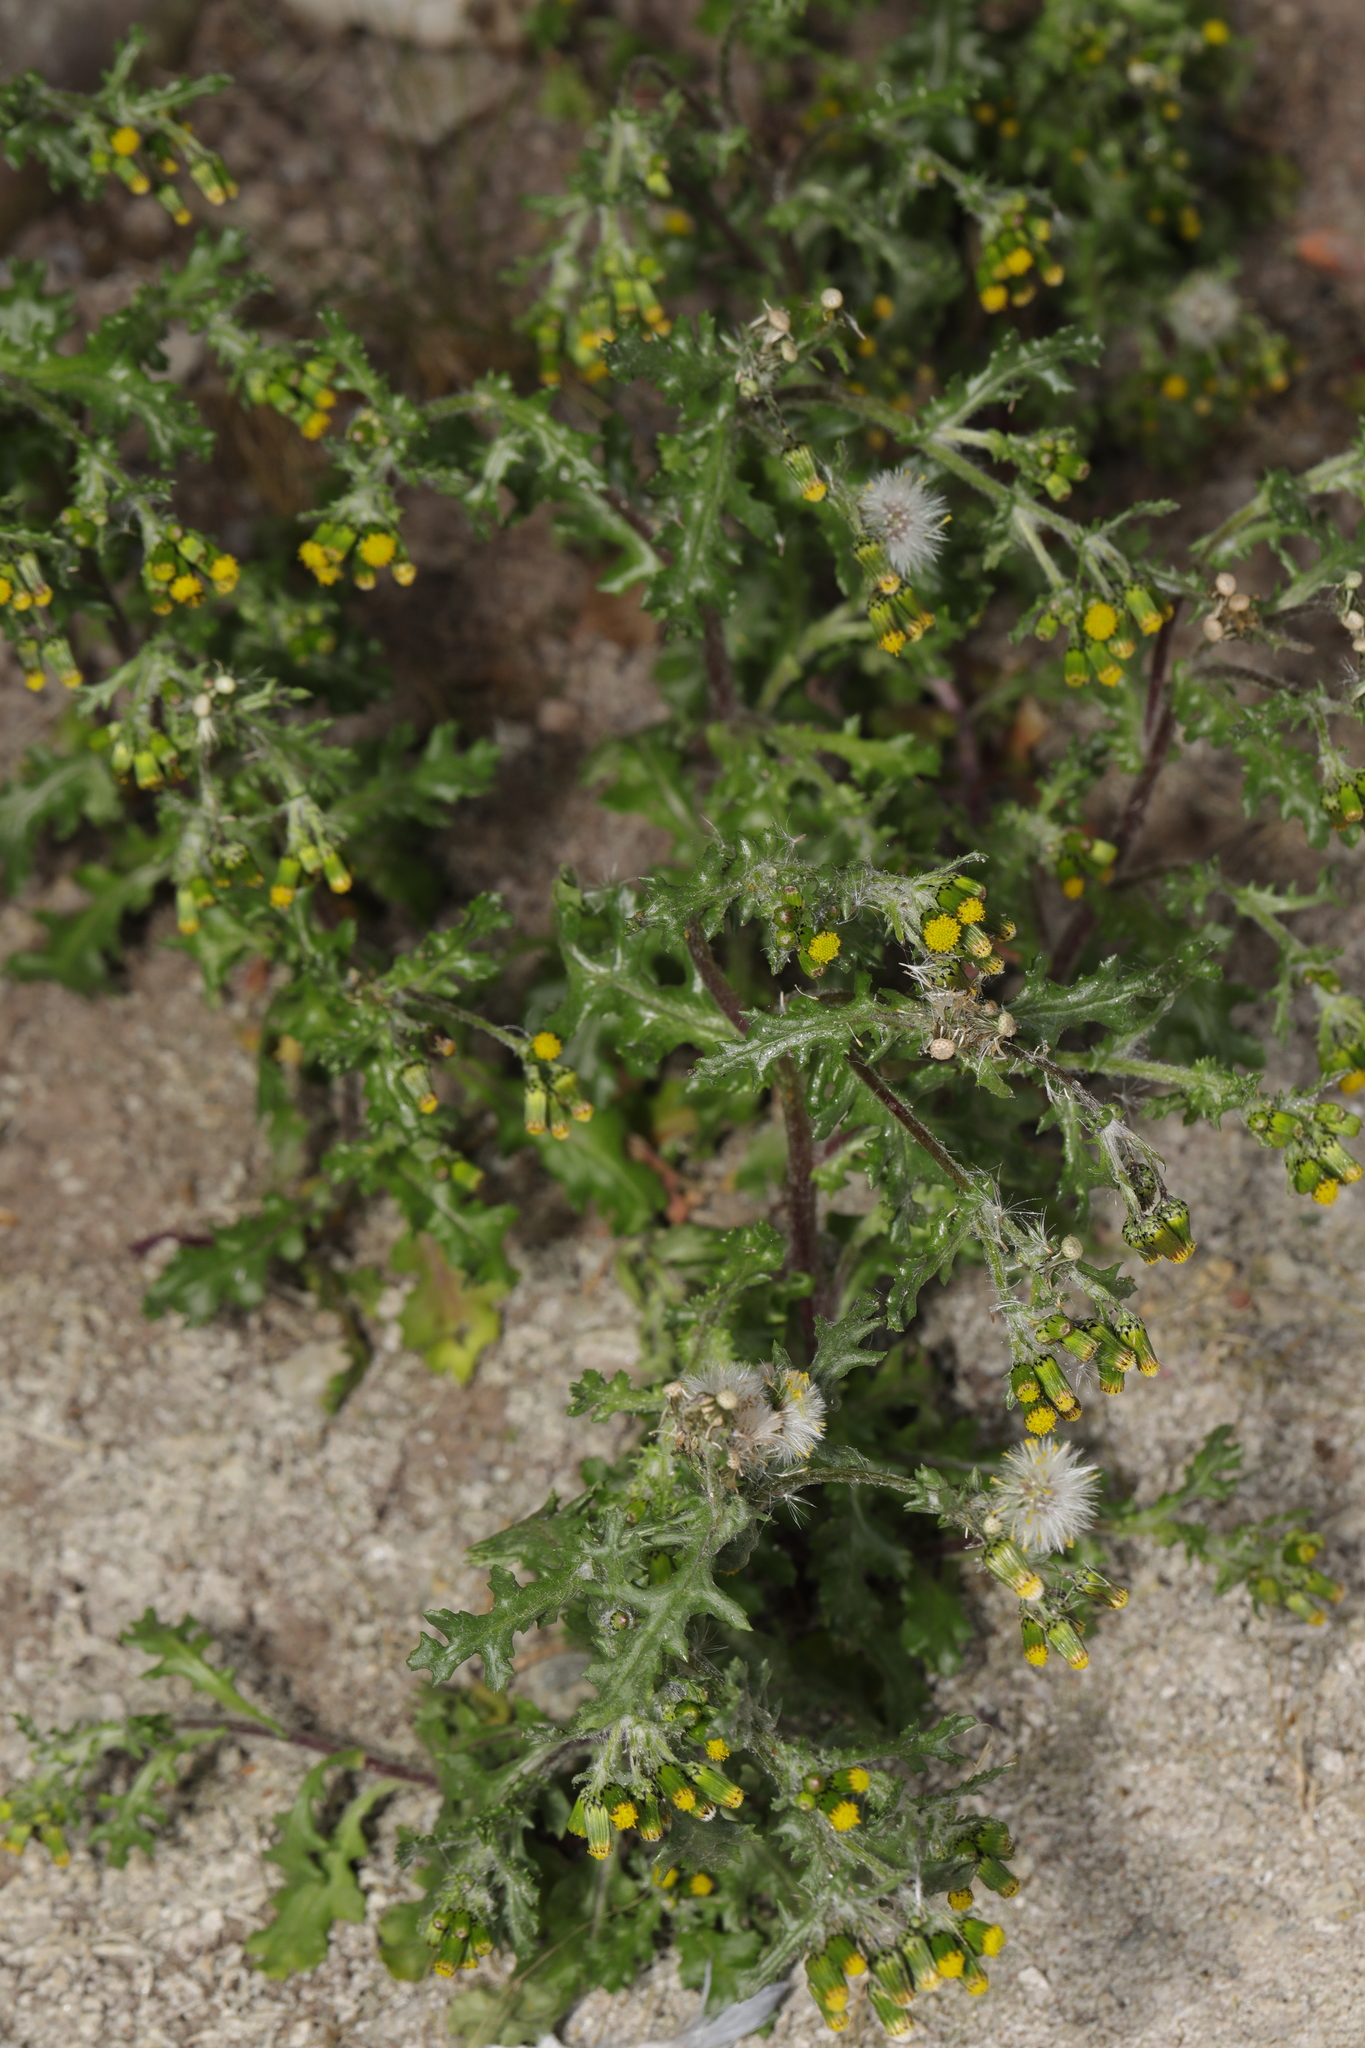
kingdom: Plantae
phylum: Tracheophyta
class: Magnoliopsida
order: Asterales
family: Asteraceae
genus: Senecio
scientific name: Senecio vulgaris
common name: Old-man-in-the-spring
